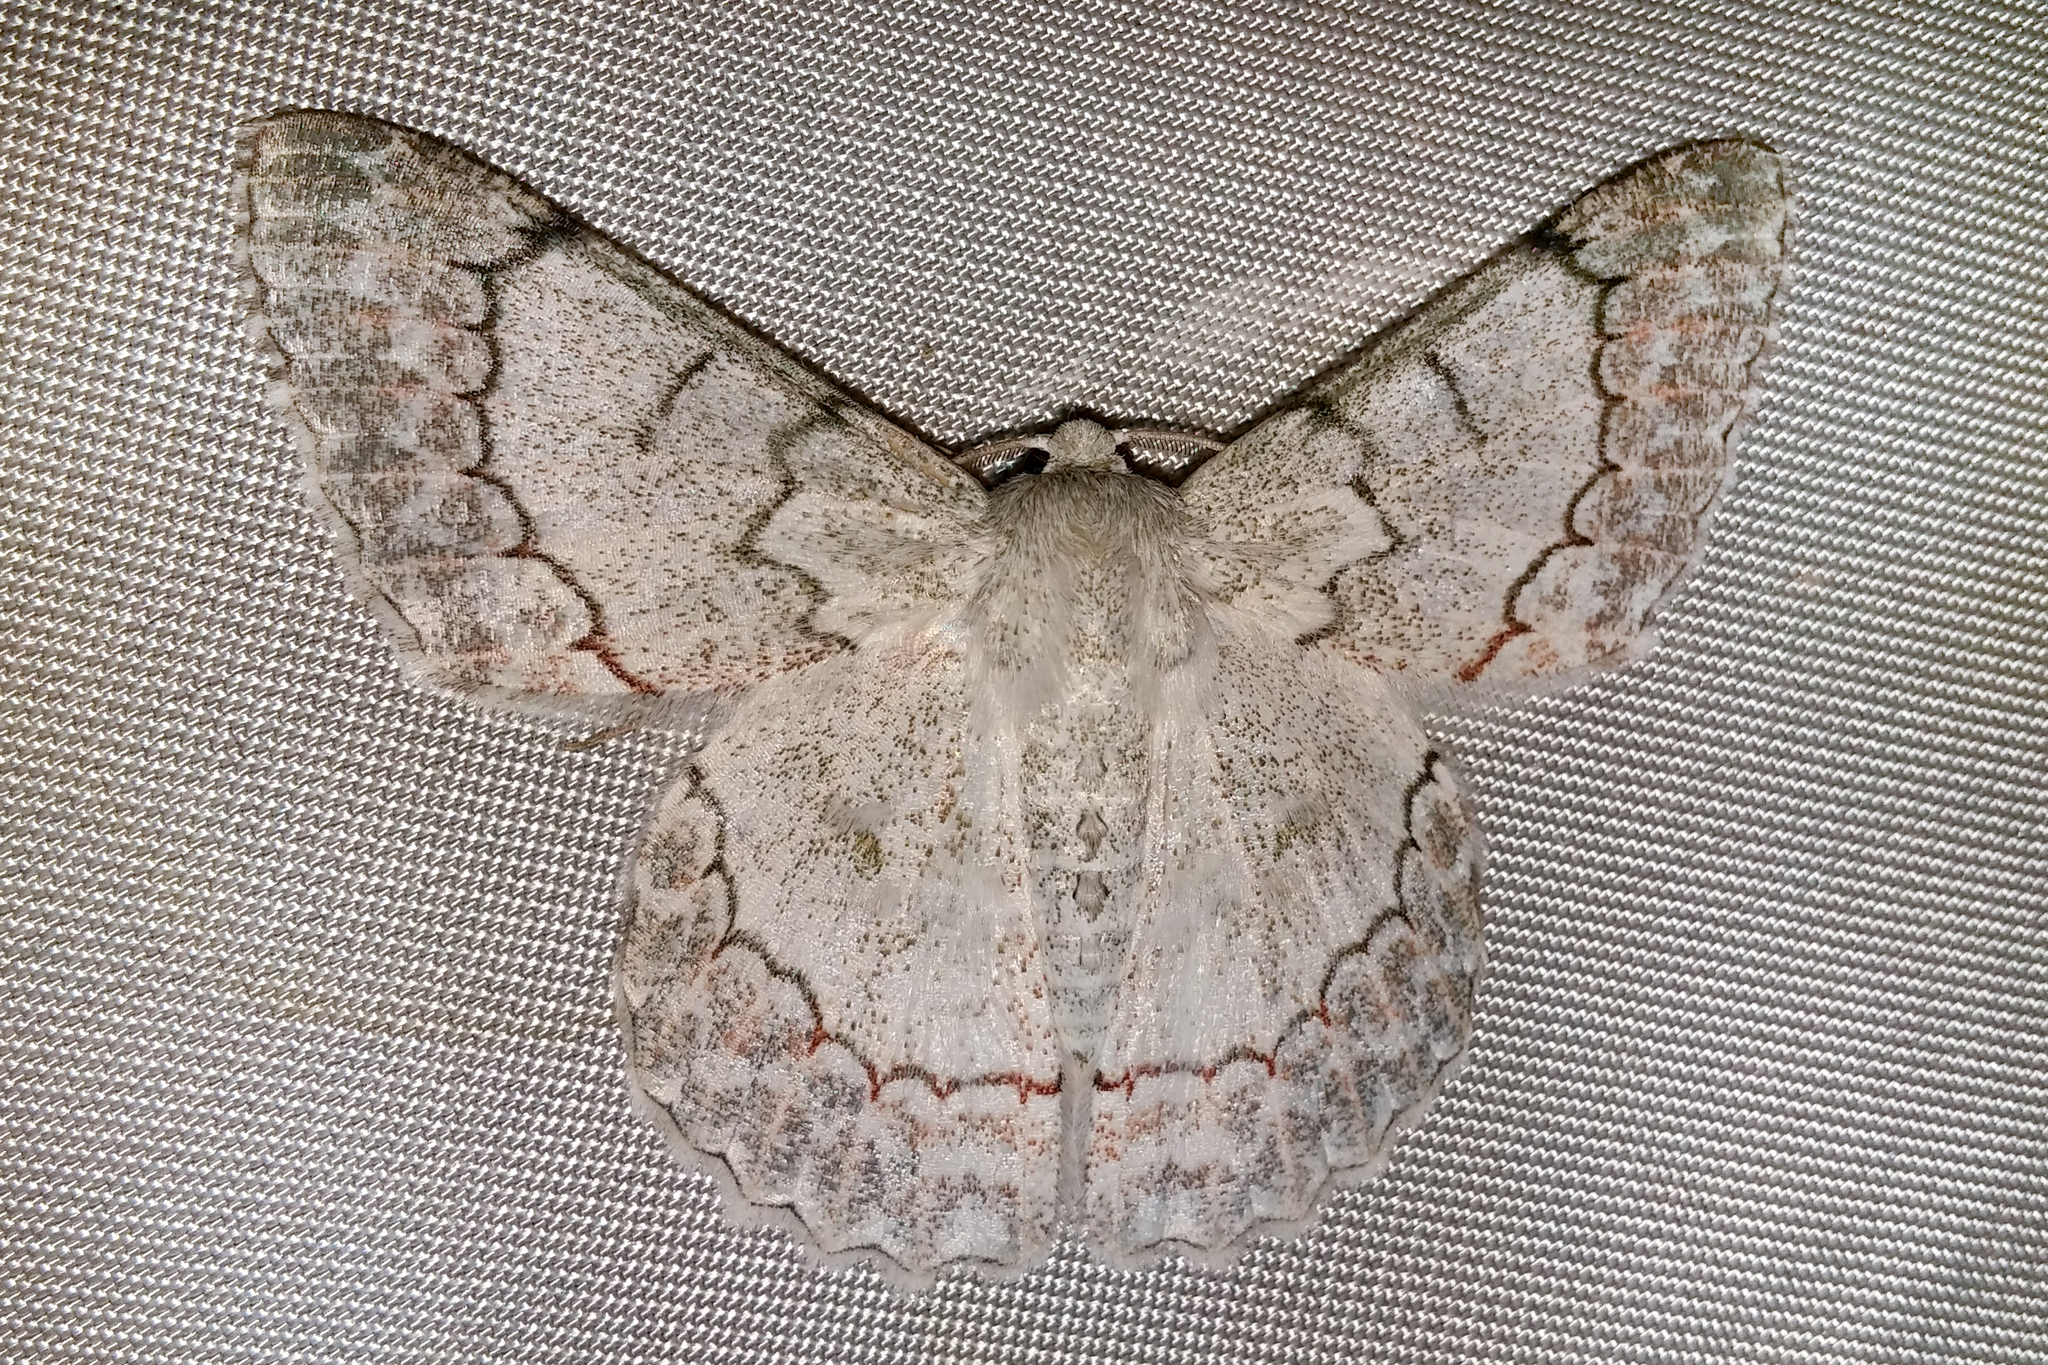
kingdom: Animalia
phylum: Arthropoda
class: Insecta
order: Lepidoptera
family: Geometridae
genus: Pingasa
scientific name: Pingasa chlora
